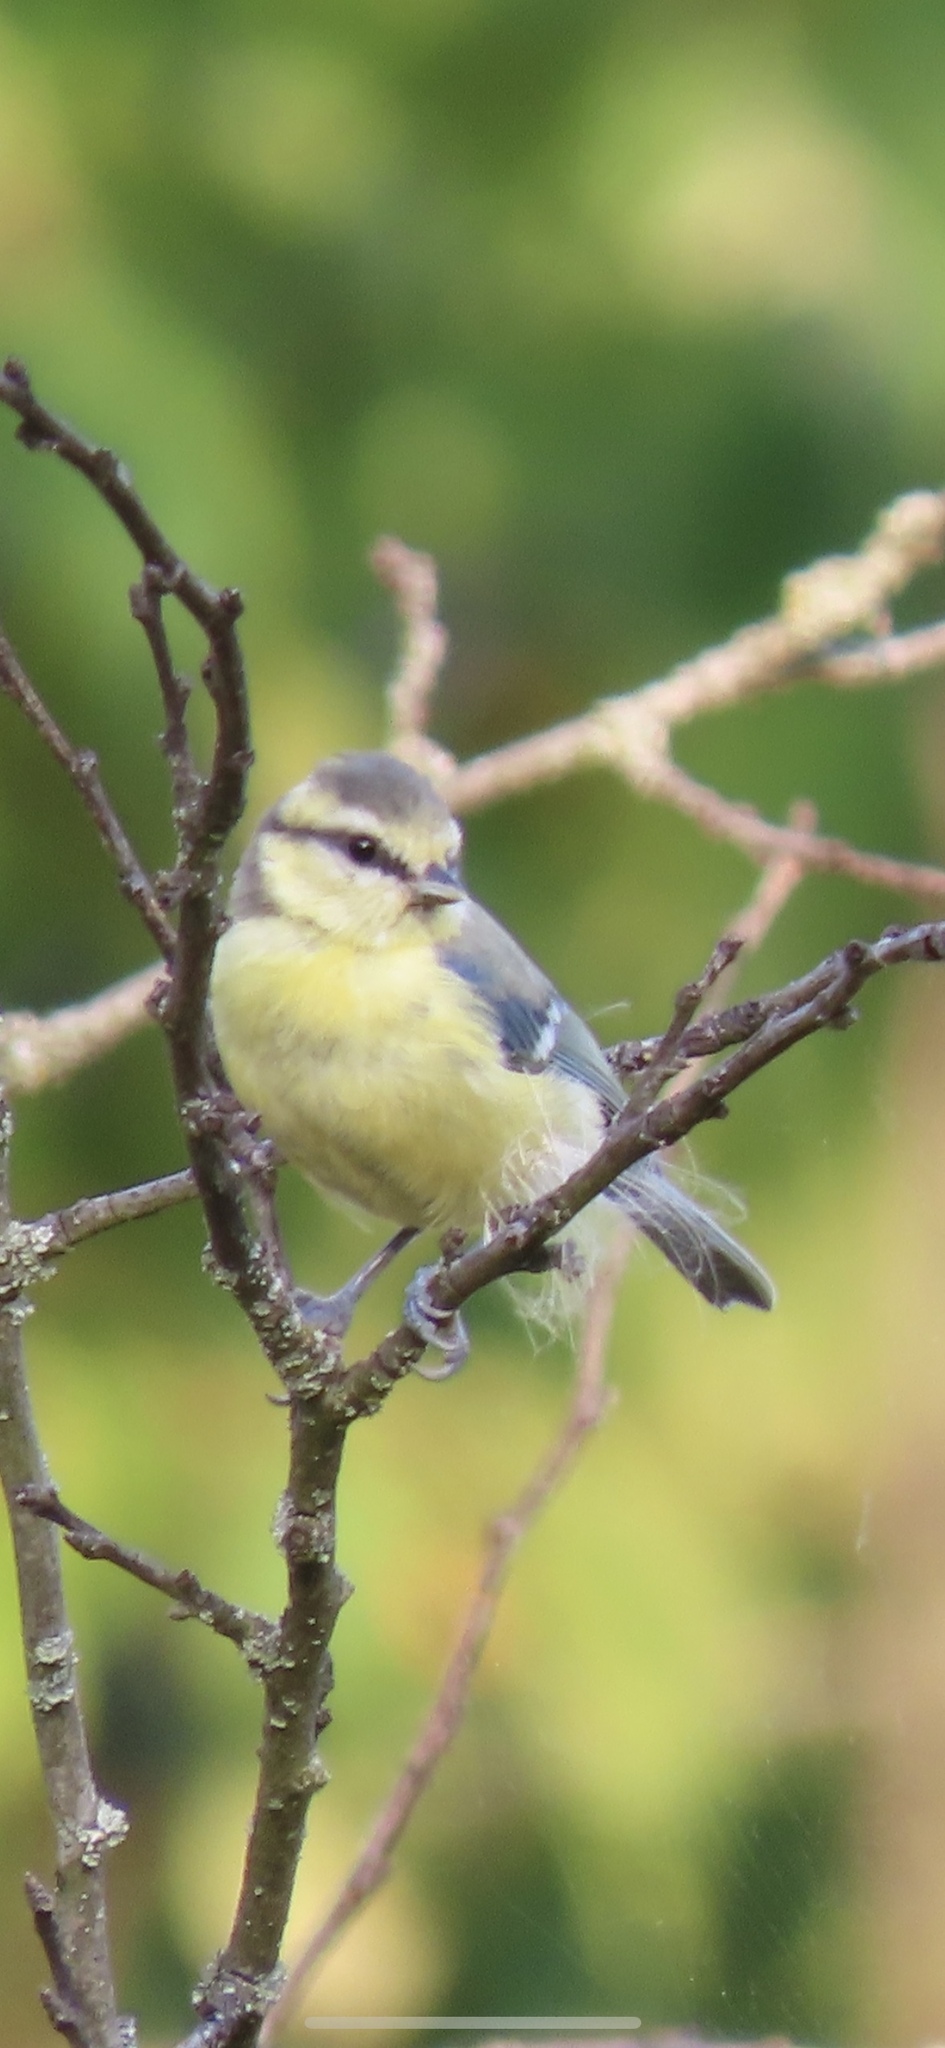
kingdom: Animalia
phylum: Chordata
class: Aves
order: Passeriformes
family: Paridae
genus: Cyanistes
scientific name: Cyanistes caeruleus
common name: Eurasian blue tit
